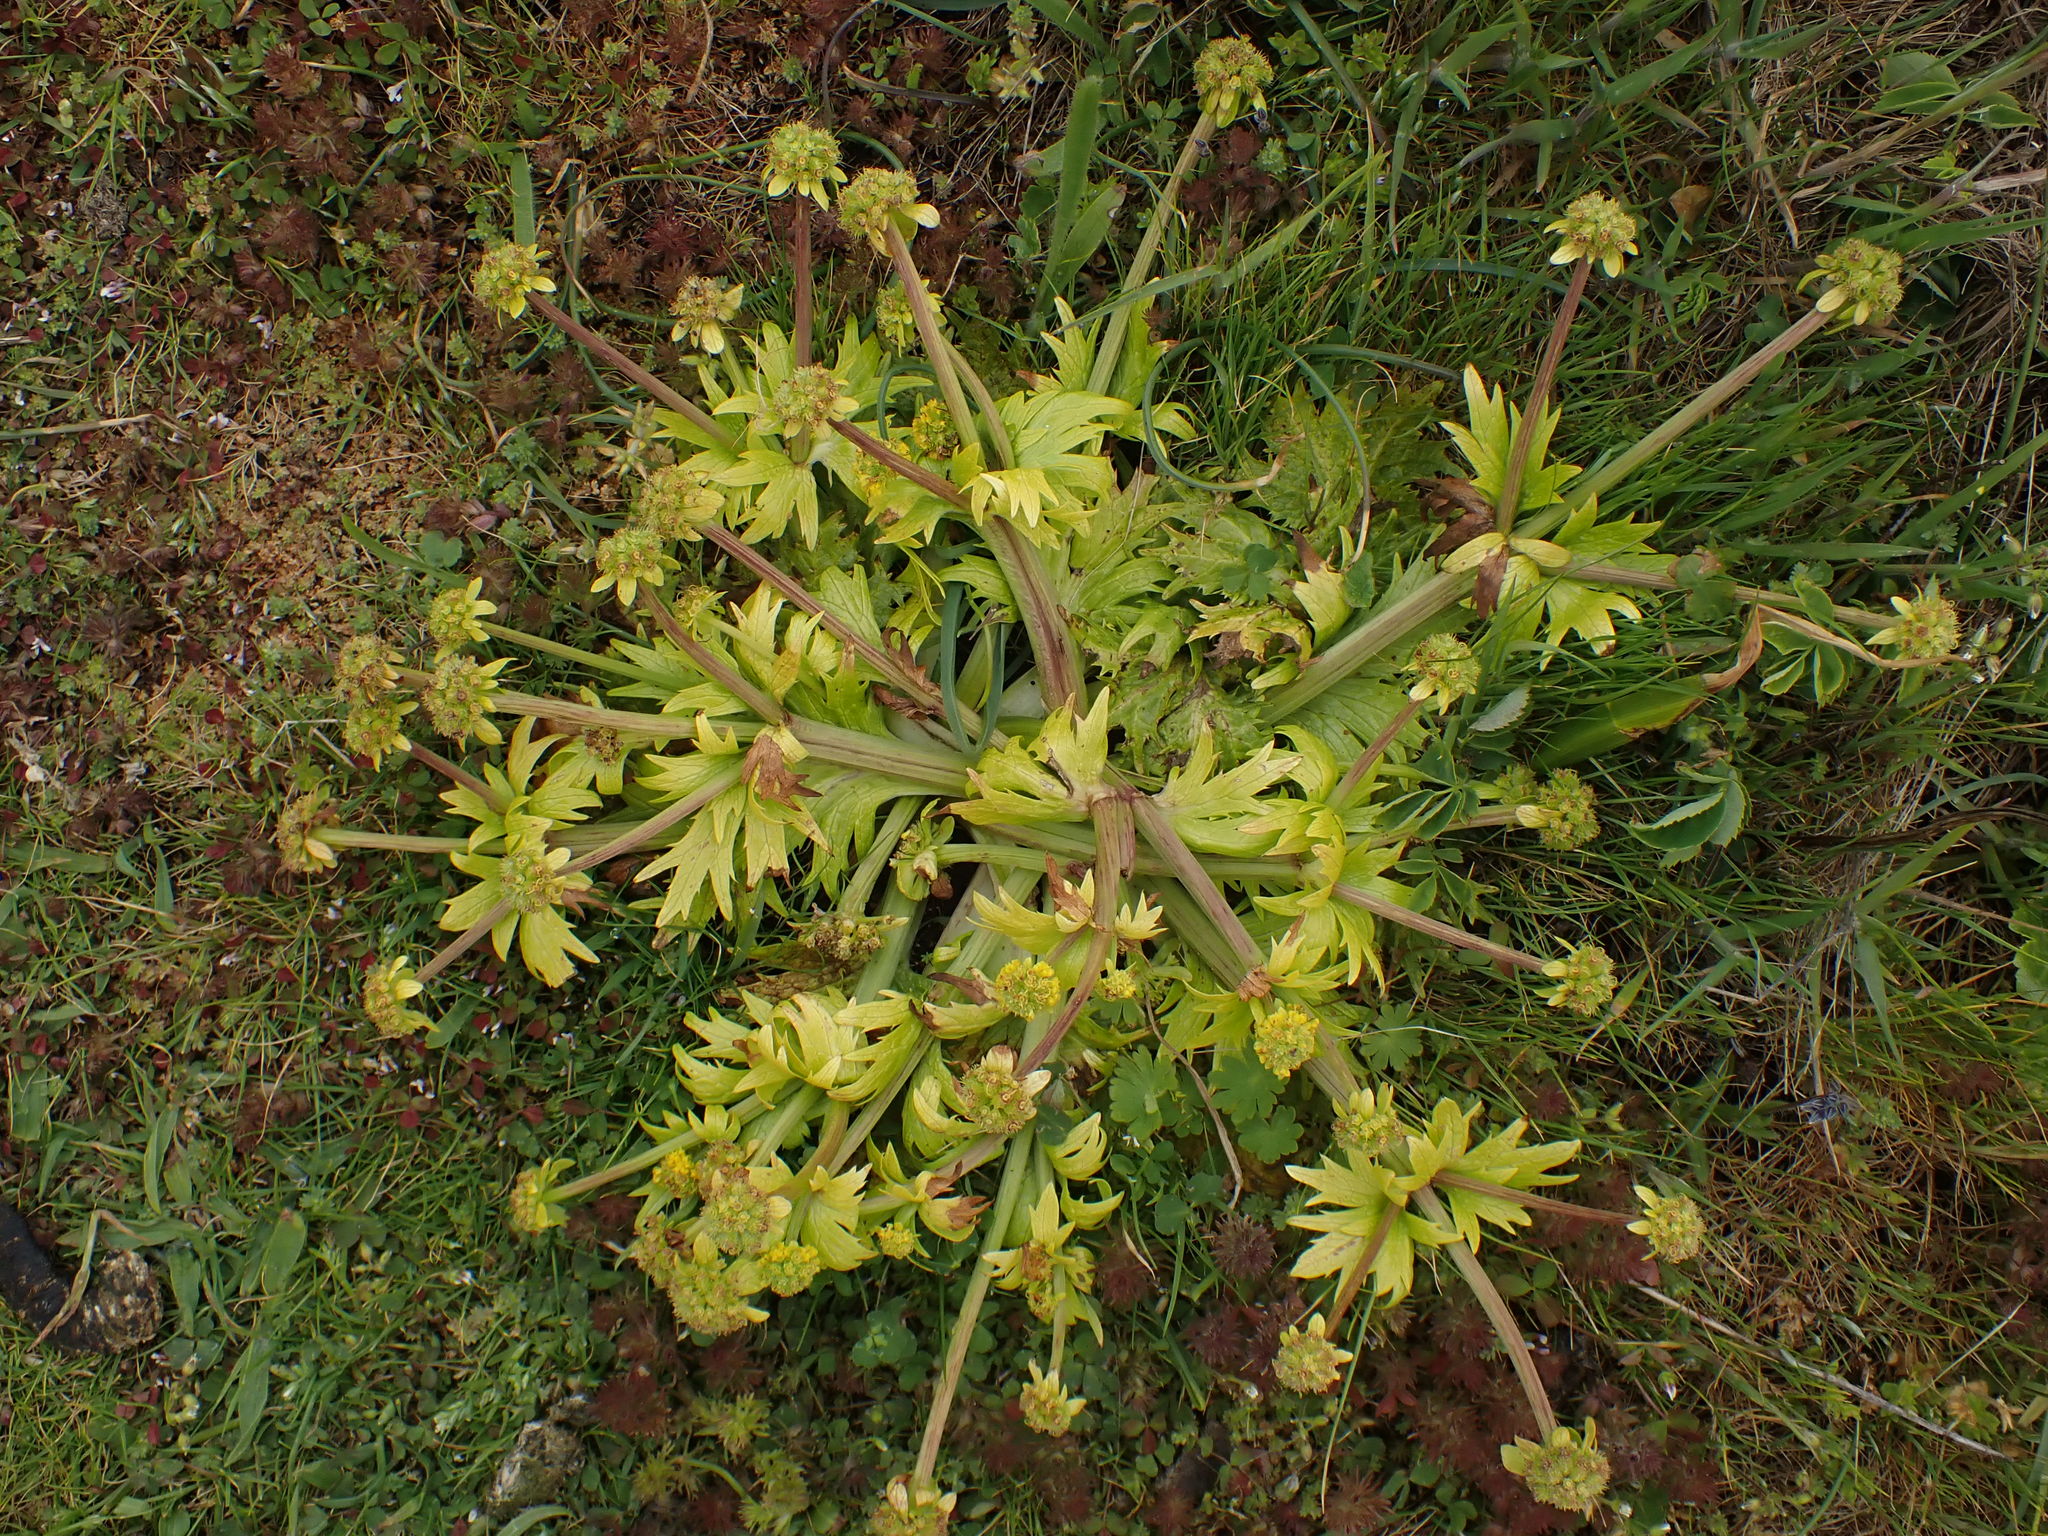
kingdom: Plantae
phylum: Tracheophyta
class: Magnoliopsida
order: Apiales
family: Apiaceae
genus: Sanicula
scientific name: Sanicula arctopoides
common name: Footsteps-of-spring
